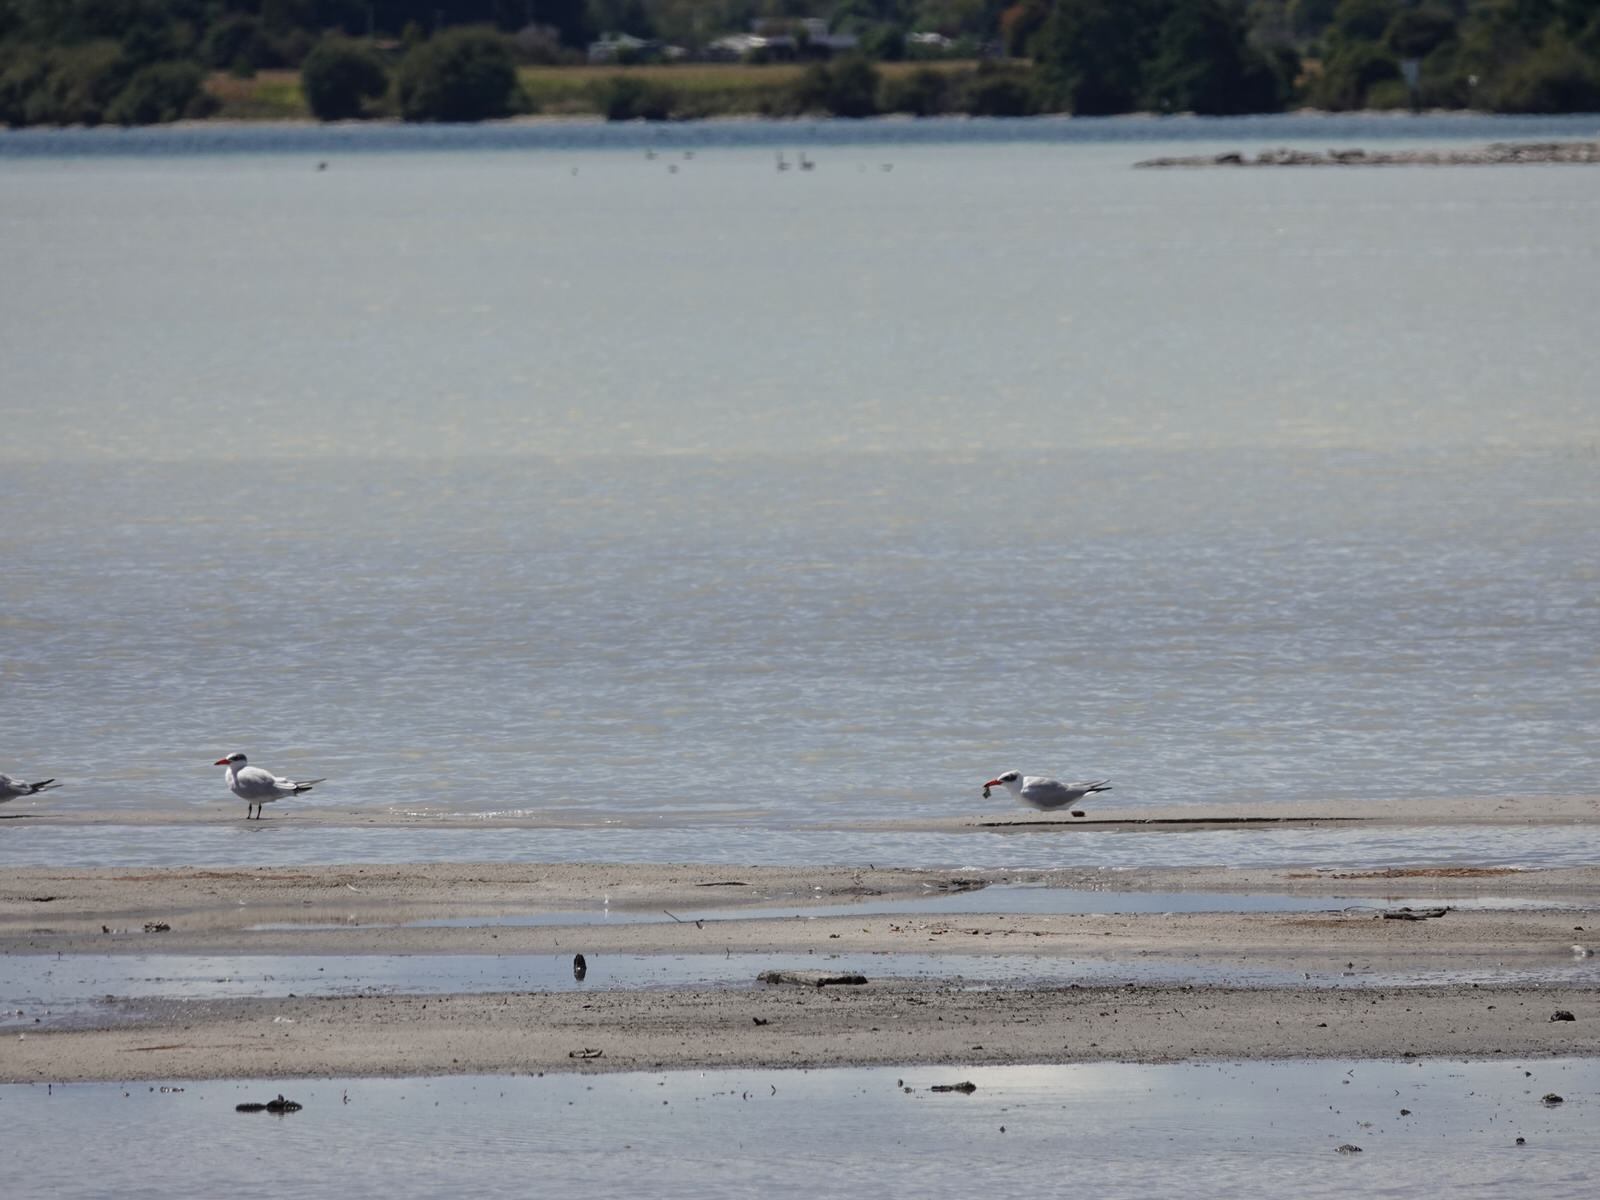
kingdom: Animalia
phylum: Chordata
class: Aves
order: Charadriiformes
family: Laridae
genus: Hydroprogne
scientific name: Hydroprogne caspia
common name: Caspian tern
